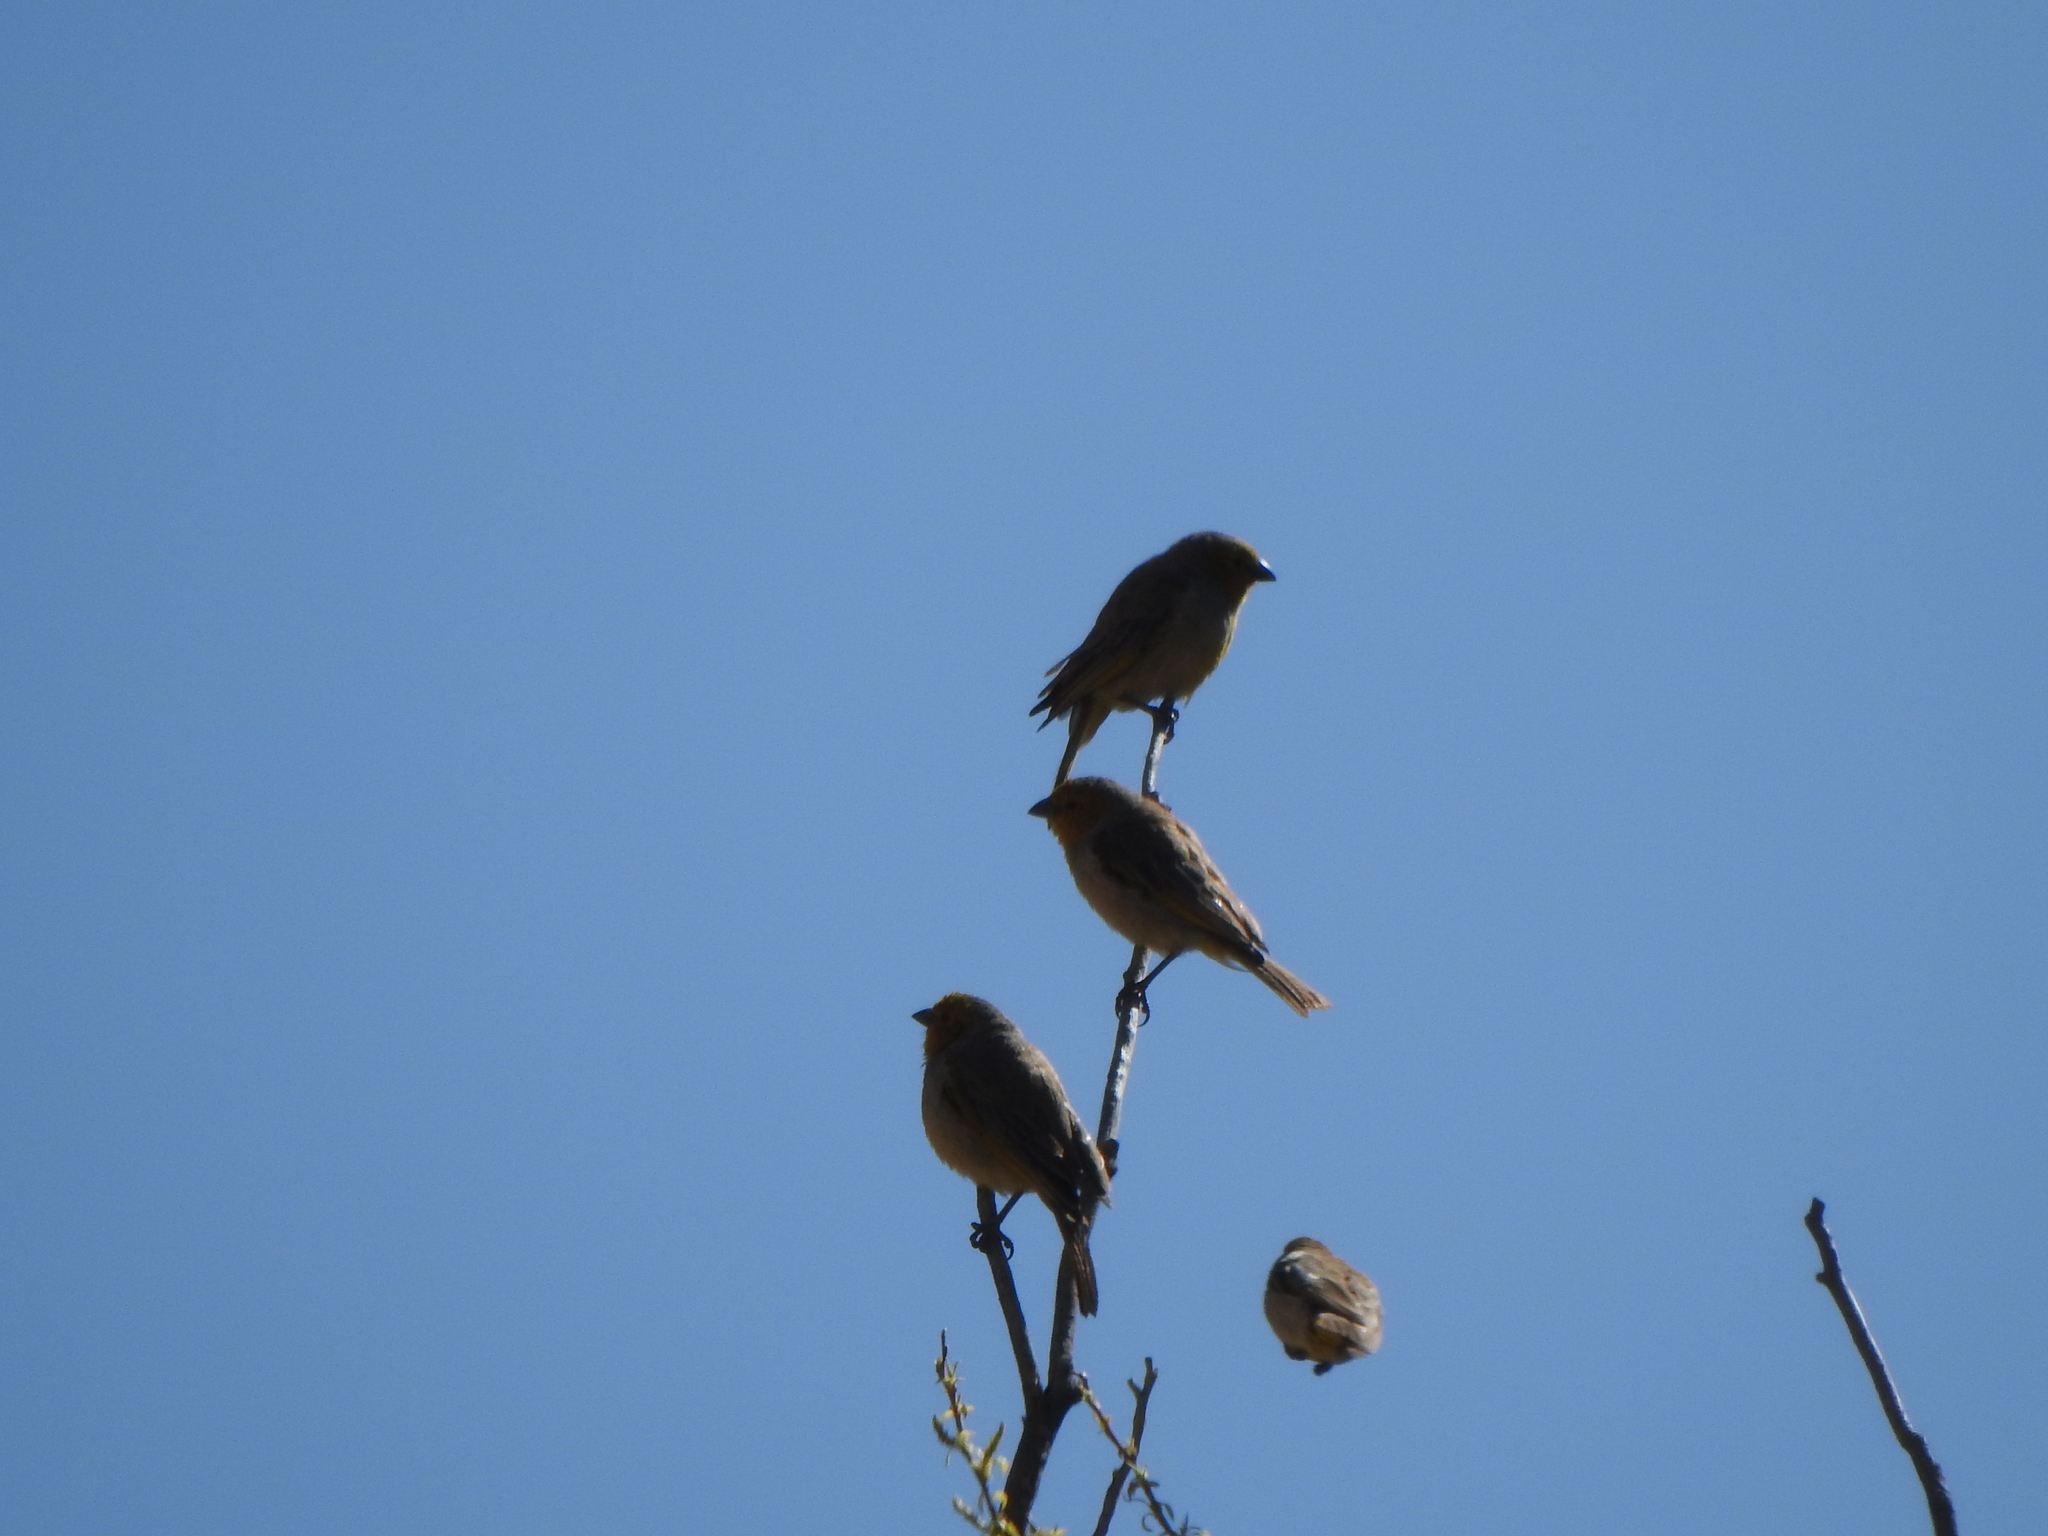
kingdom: Animalia
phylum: Chordata
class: Aves
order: Passeriformes
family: Thraupidae
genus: Sicalis
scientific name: Sicalis luteocephala
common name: Citron-headed yellow finch
